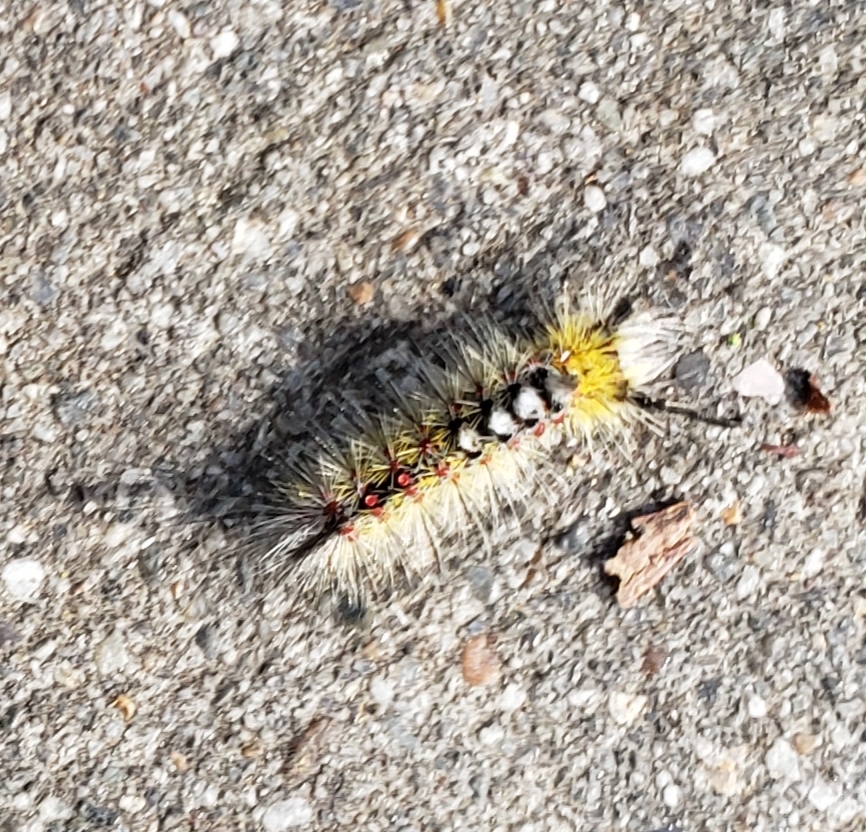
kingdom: Animalia
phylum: Arthropoda
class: Insecta
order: Lepidoptera
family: Erebidae
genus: Orgyia
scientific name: Orgyia vetusta
